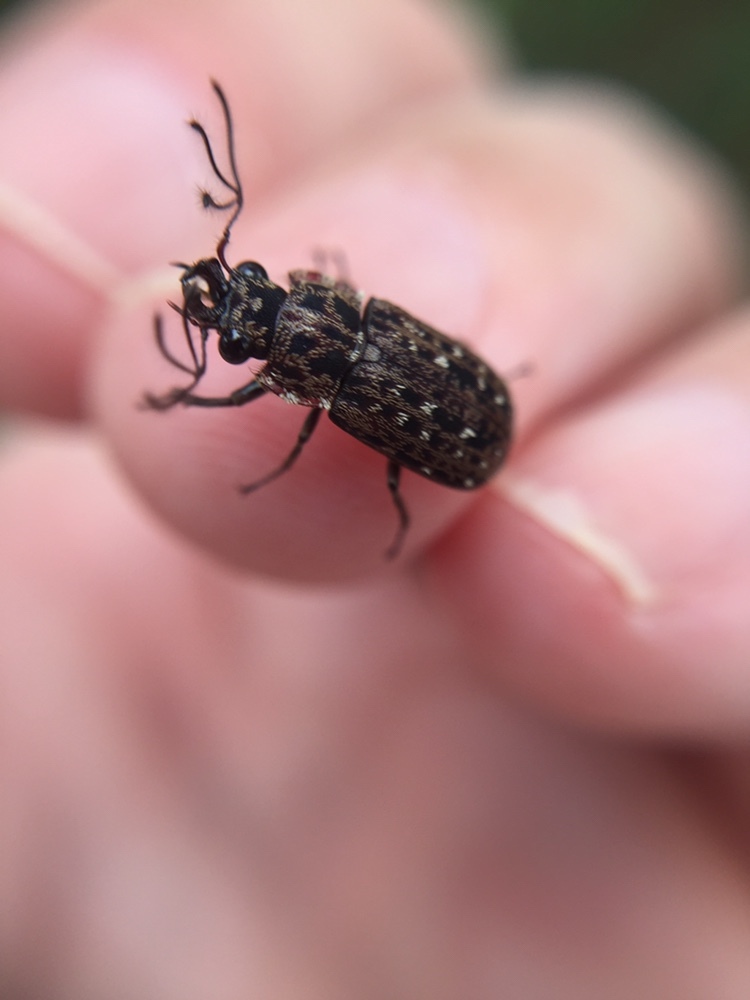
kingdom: Animalia
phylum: Arthropoda
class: Insecta
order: Coleoptera
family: Lucanidae
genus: Mitophyllus
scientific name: Mitophyllus arcuatus
